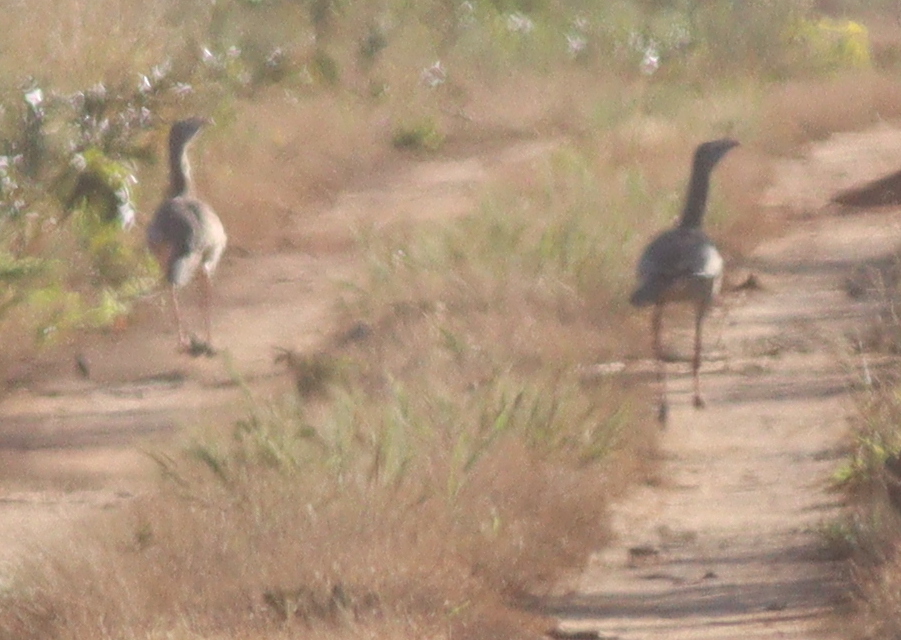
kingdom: Animalia
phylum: Chordata
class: Aves
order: Cariamiformes
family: Cariamidae
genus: Cariama
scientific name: Cariama cristata
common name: Red-legged seriema
